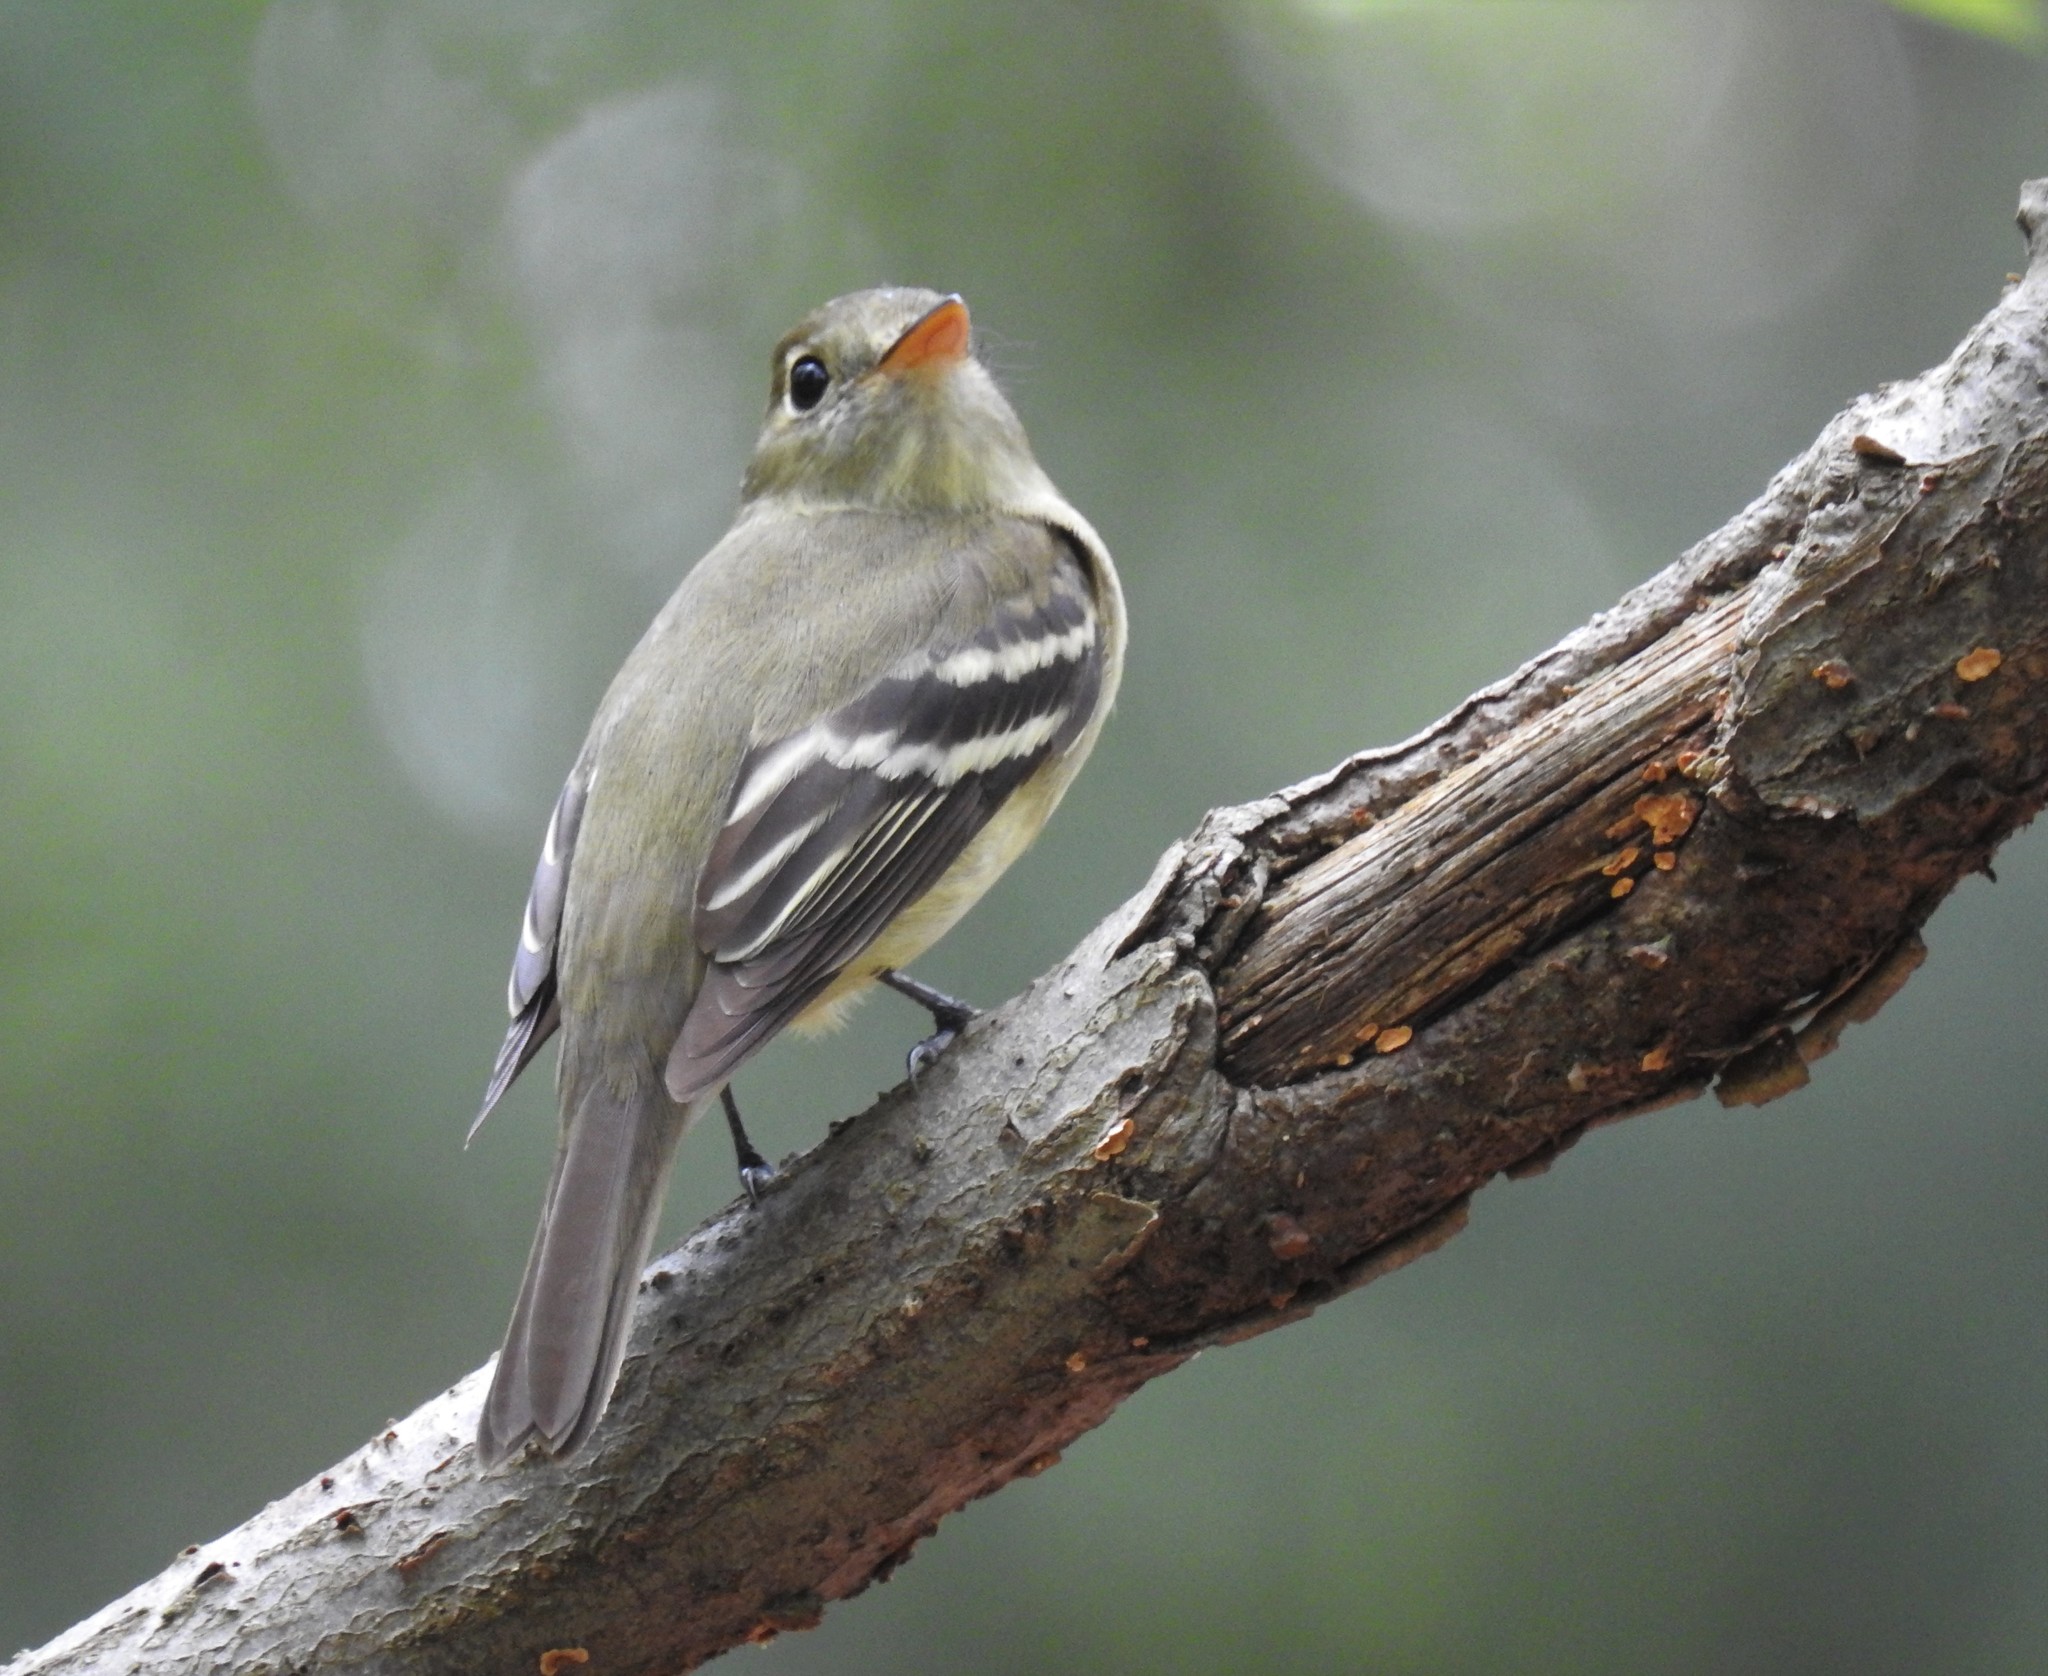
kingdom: Animalia
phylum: Chordata
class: Aves
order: Passeriformes
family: Tyrannidae
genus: Empidonax
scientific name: Empidonax flaviventris
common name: Yellow-bellied flycatcher
